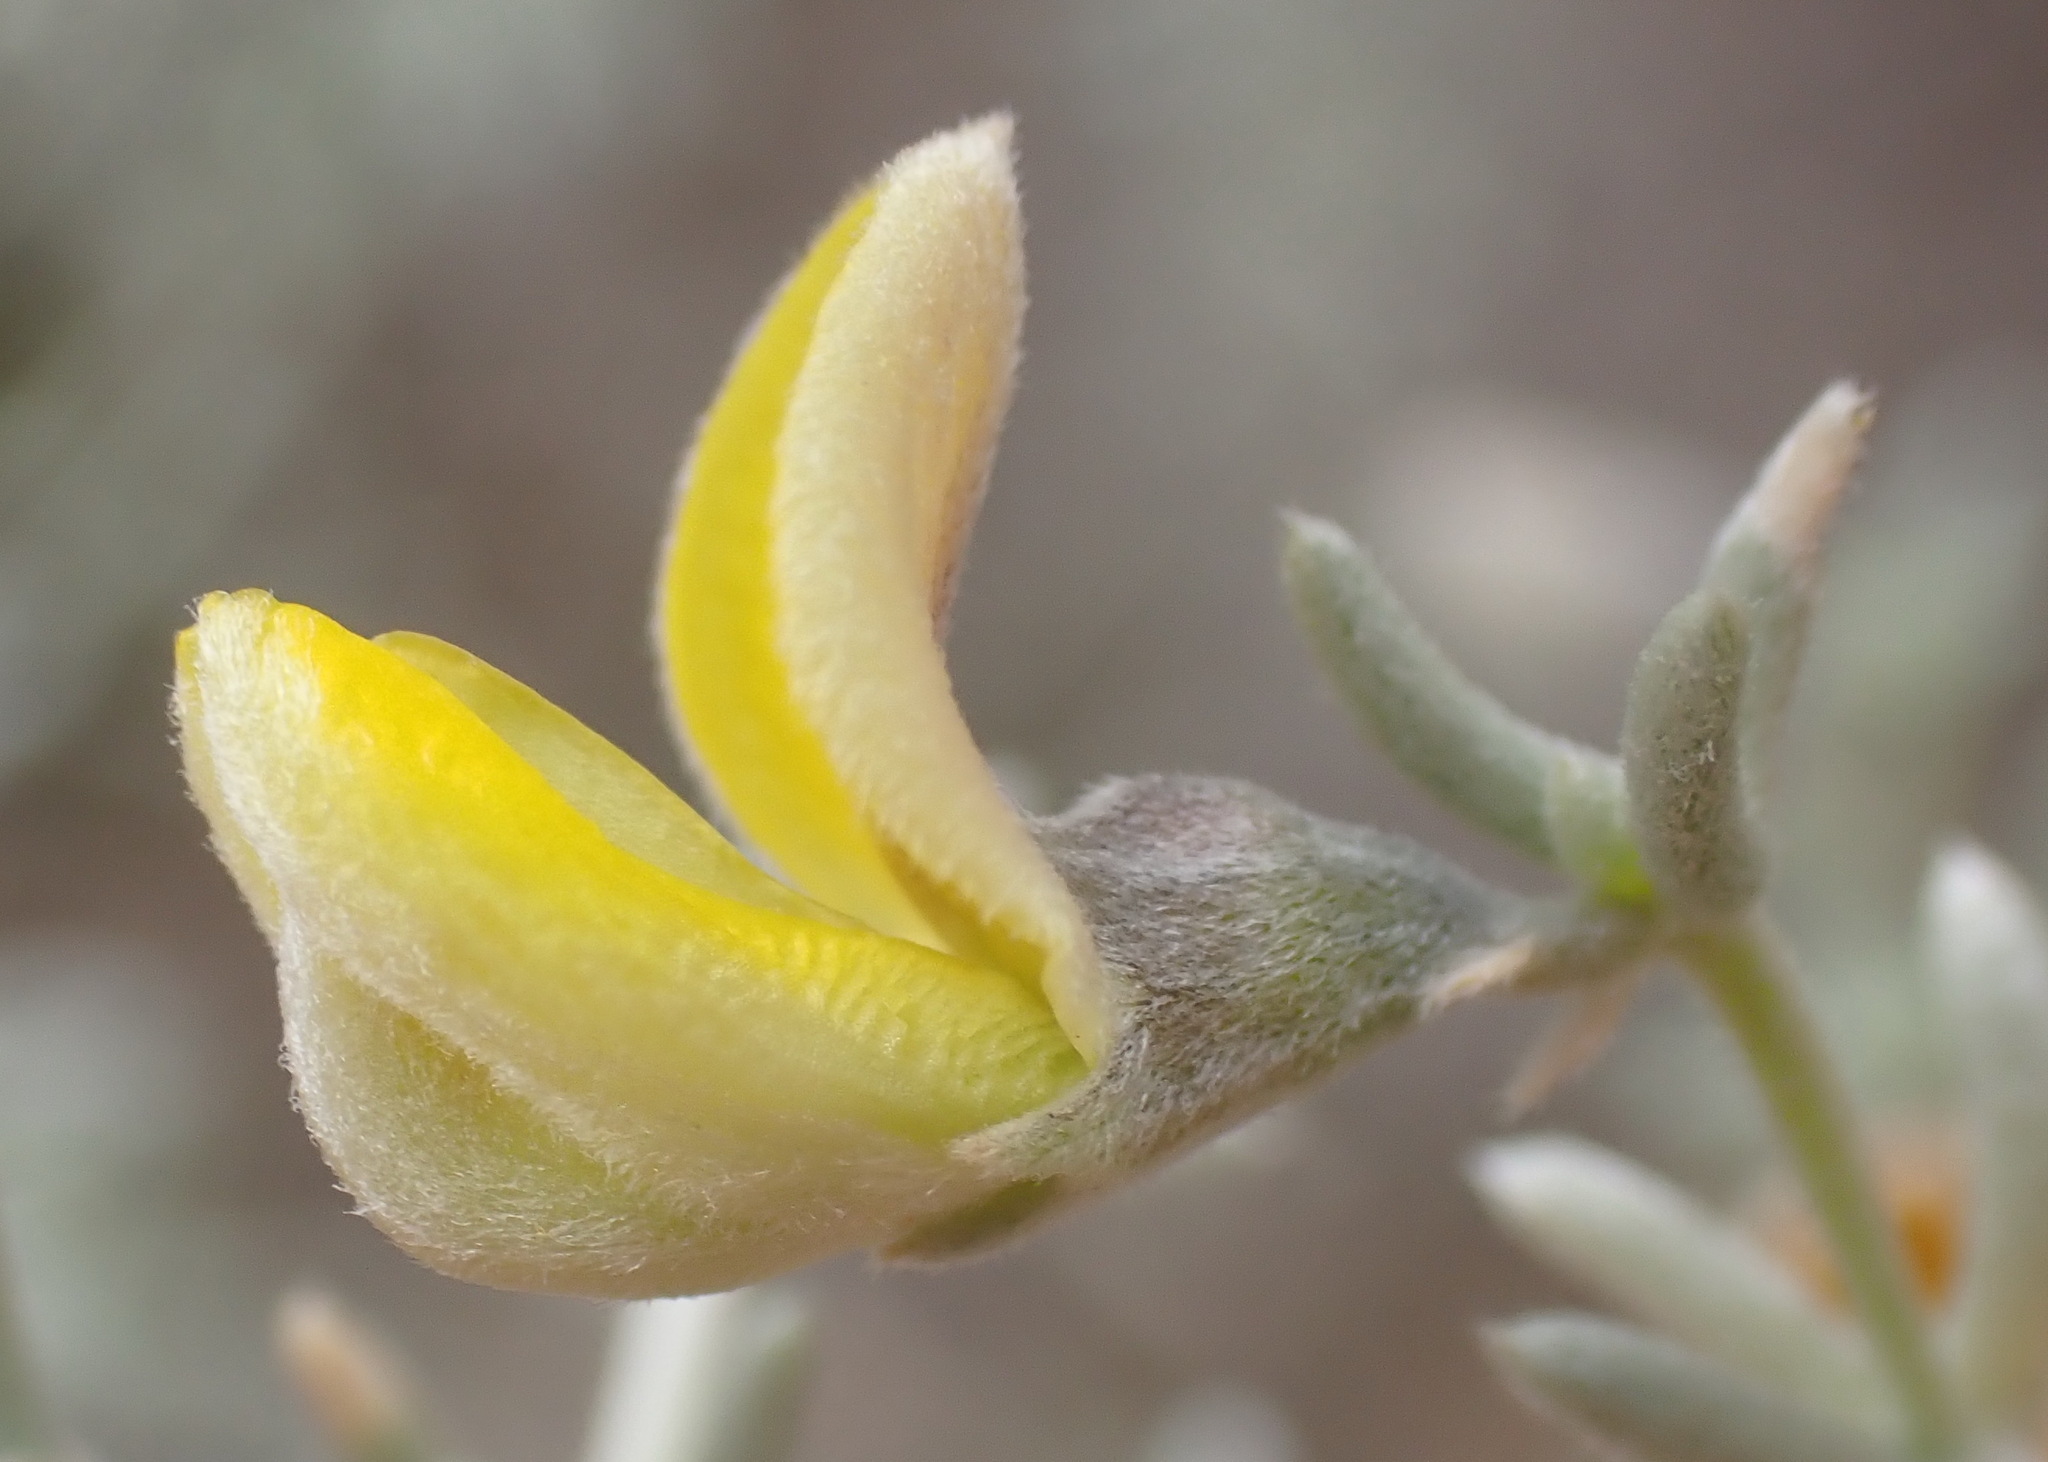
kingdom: Plantae
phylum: Tracheophyta
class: Magnoliopsida
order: Fabales
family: Fabaceae
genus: Aspalathus
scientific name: Aspalathus pedunculata
